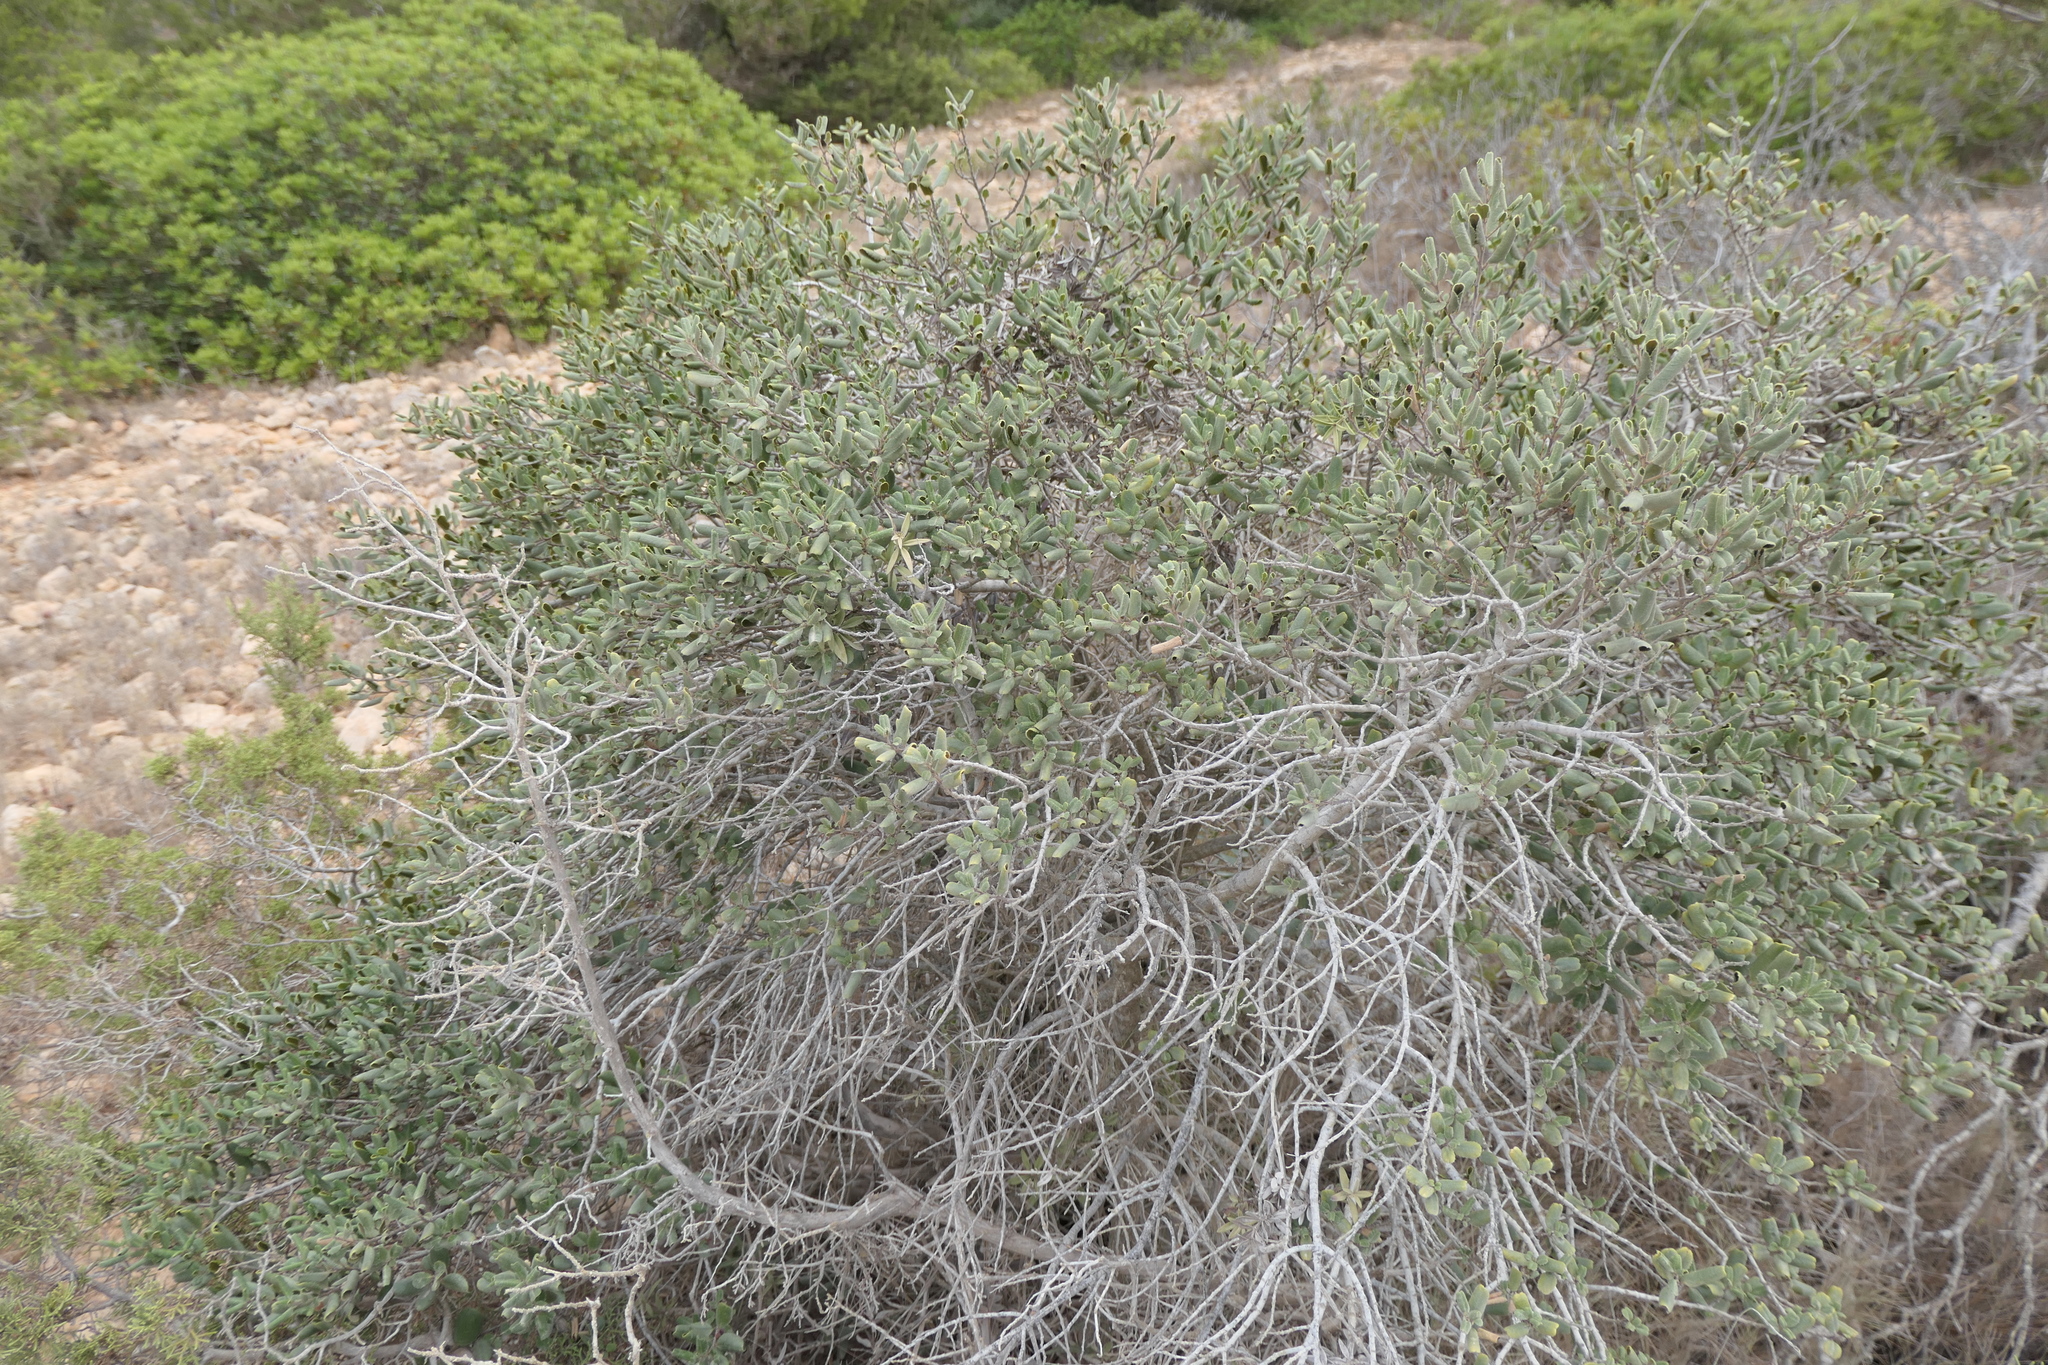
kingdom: Plantae
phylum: Tracheophyta
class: Magnoliopsida
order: Rosales
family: Rhamnaceae
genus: Rhamnus
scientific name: Rhamnus ludovici-salvatoris
